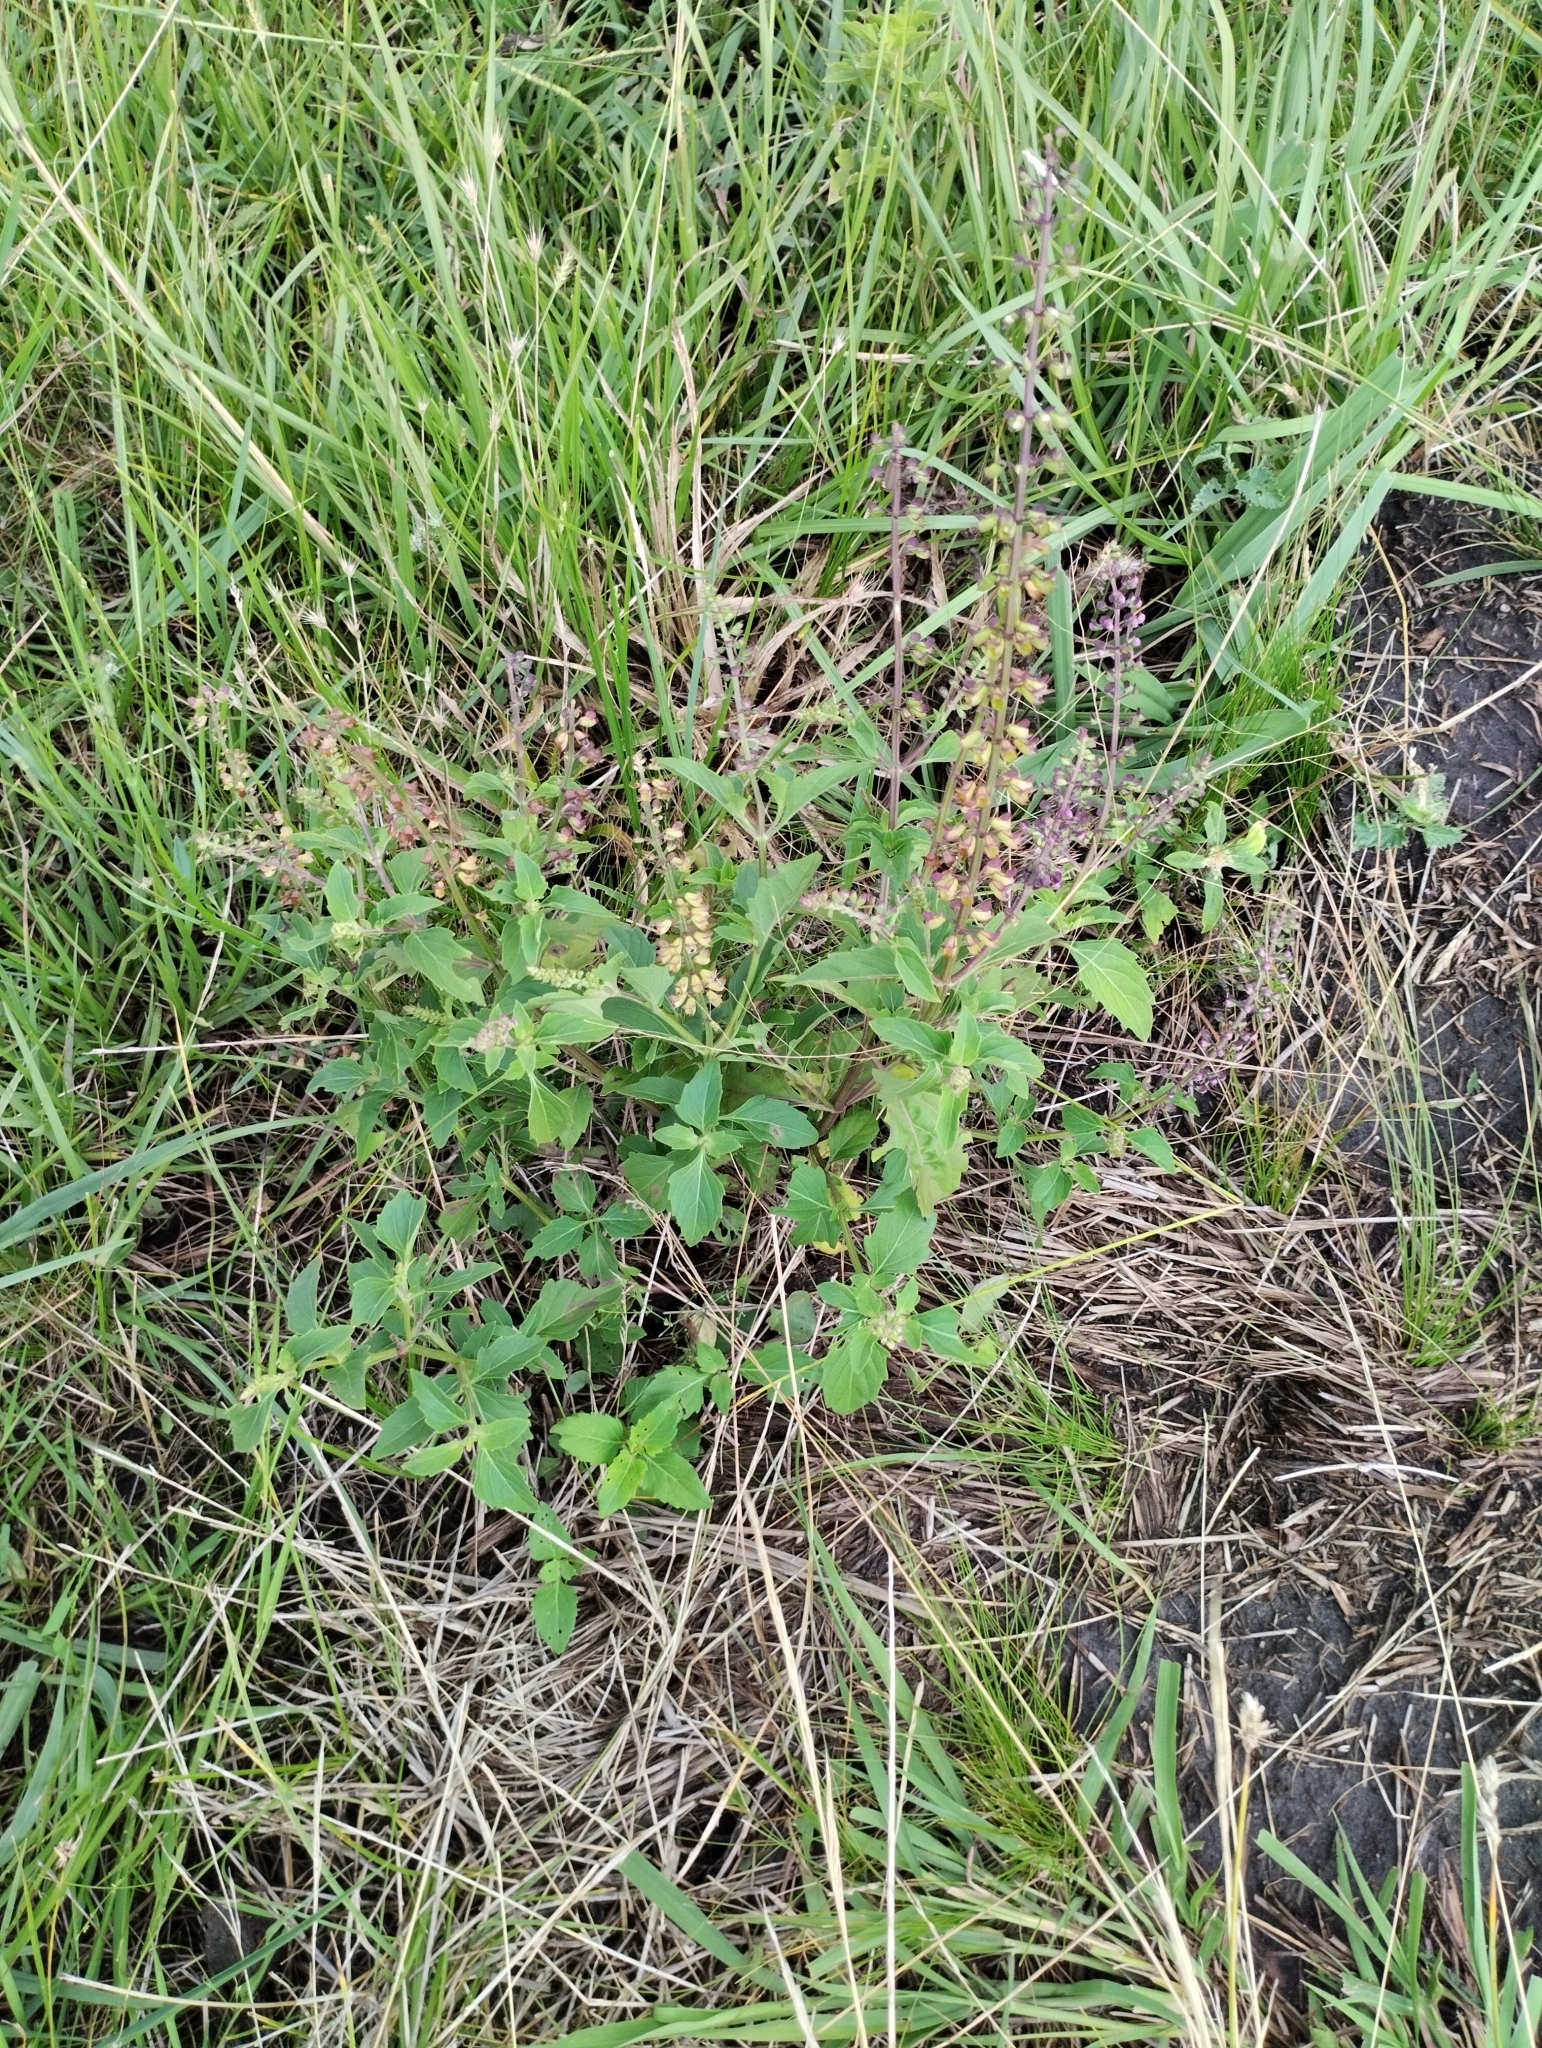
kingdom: Plantae
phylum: Tracheophyta
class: Magnoliopsida
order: Lamiales
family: Lamiaceae
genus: Ocimum
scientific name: Ocimum carnosum
